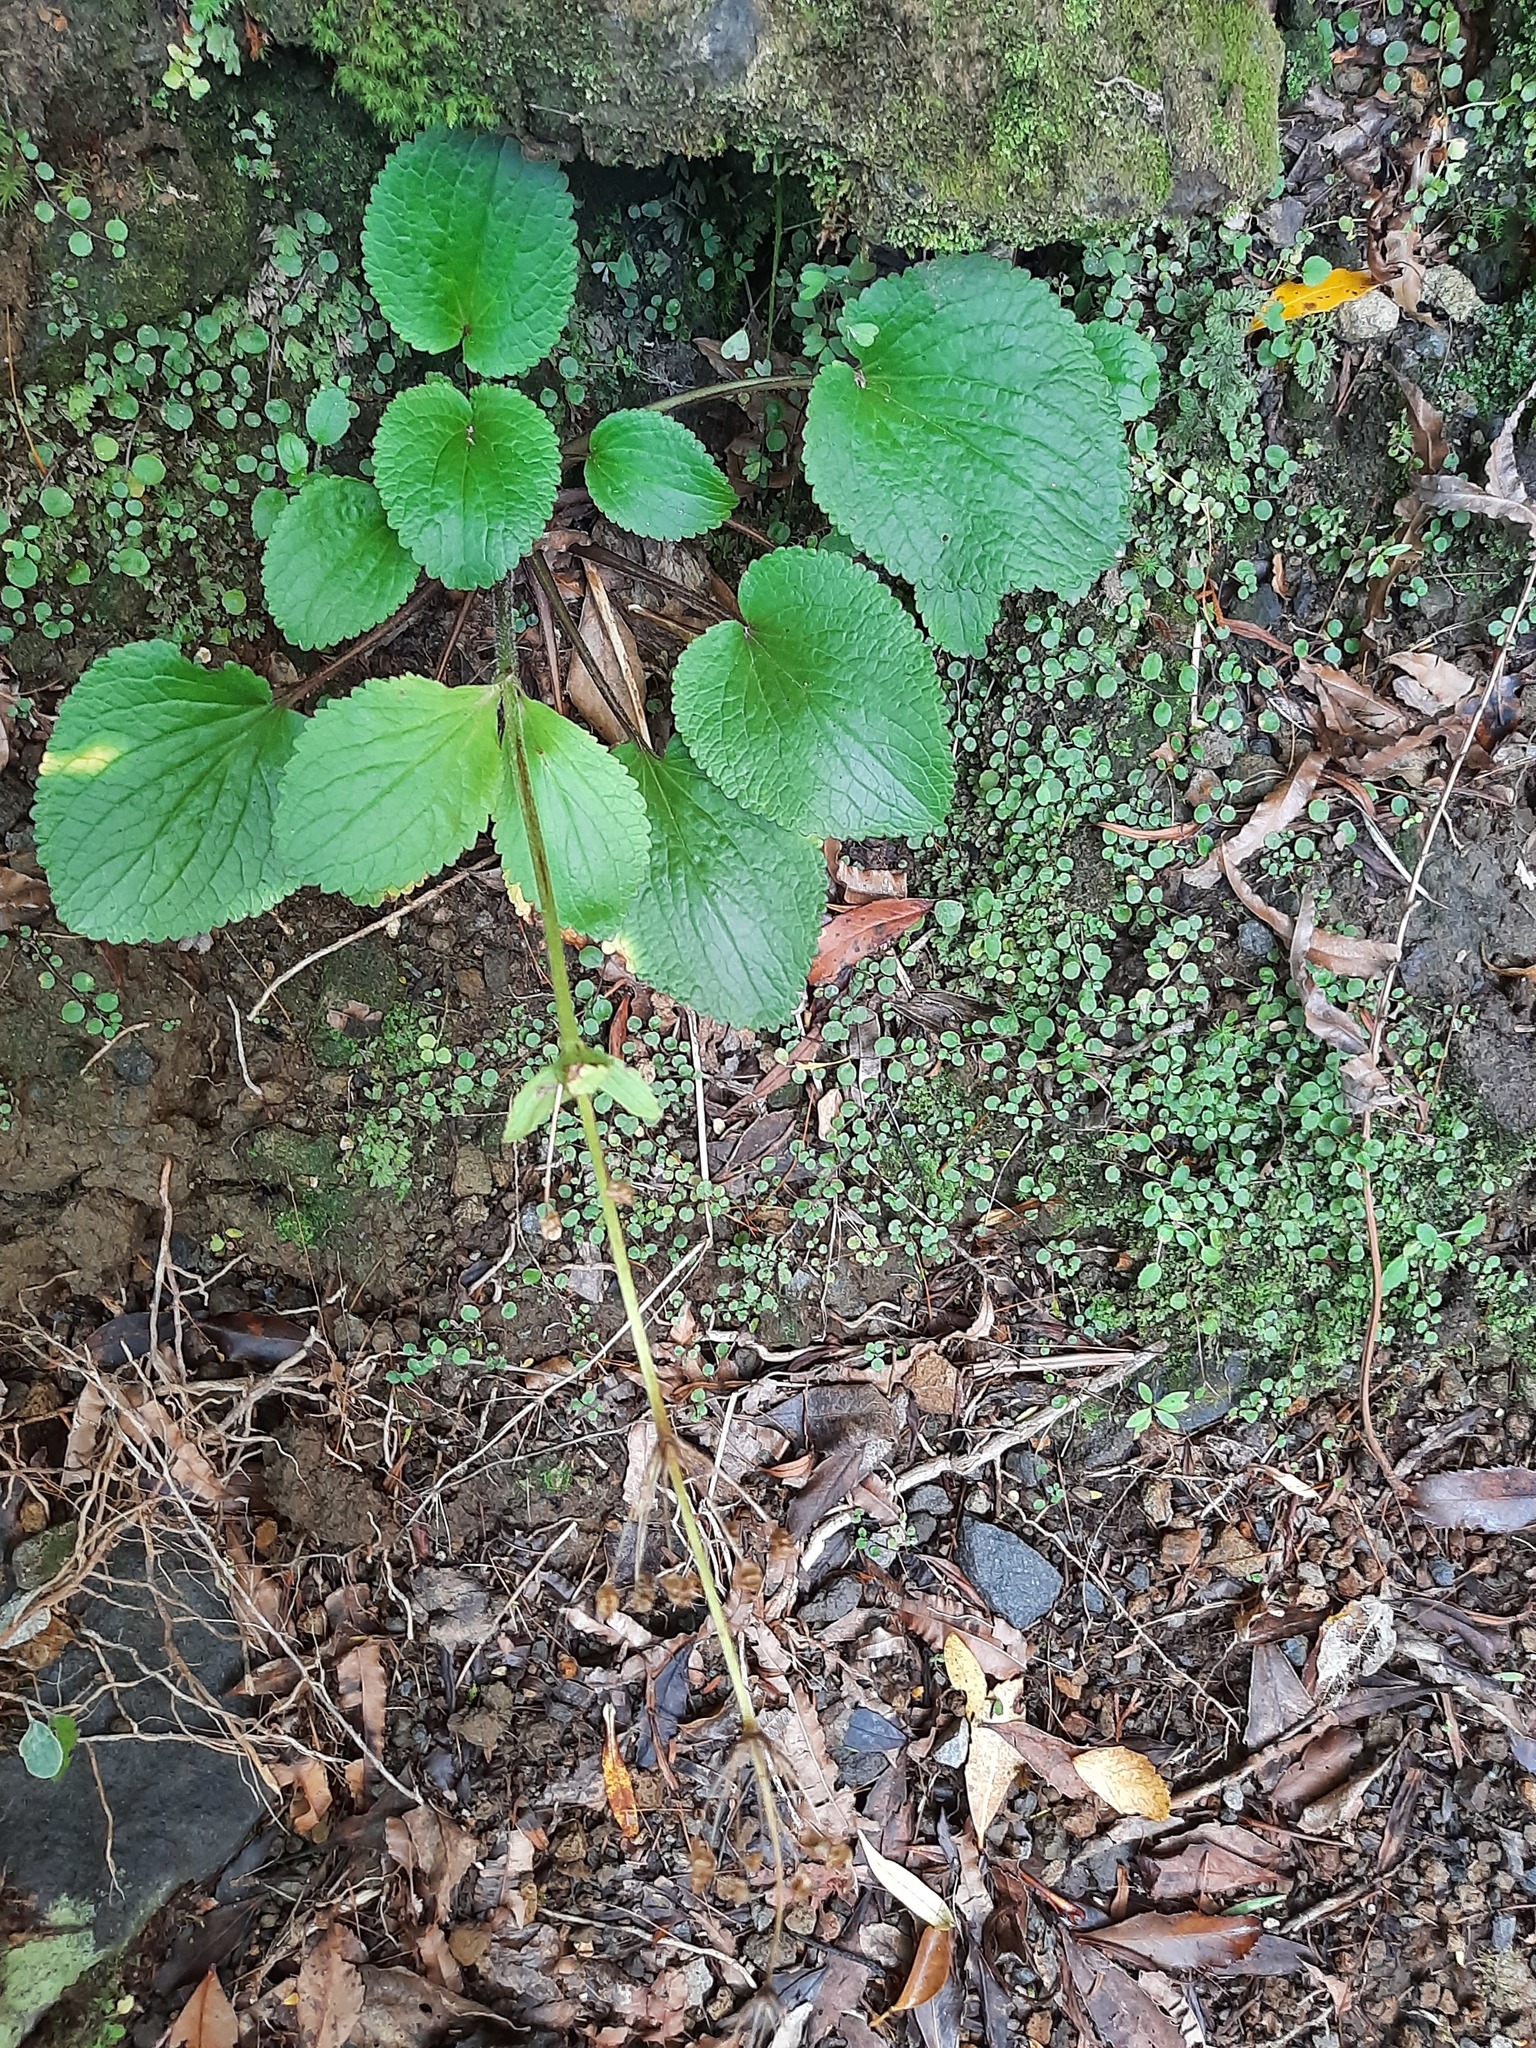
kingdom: Plantae
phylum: Tracheophyta
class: Magnoliopsida
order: Lamiales
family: Plantaginaceae
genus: Ourisia
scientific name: Ourisia macrophylla
